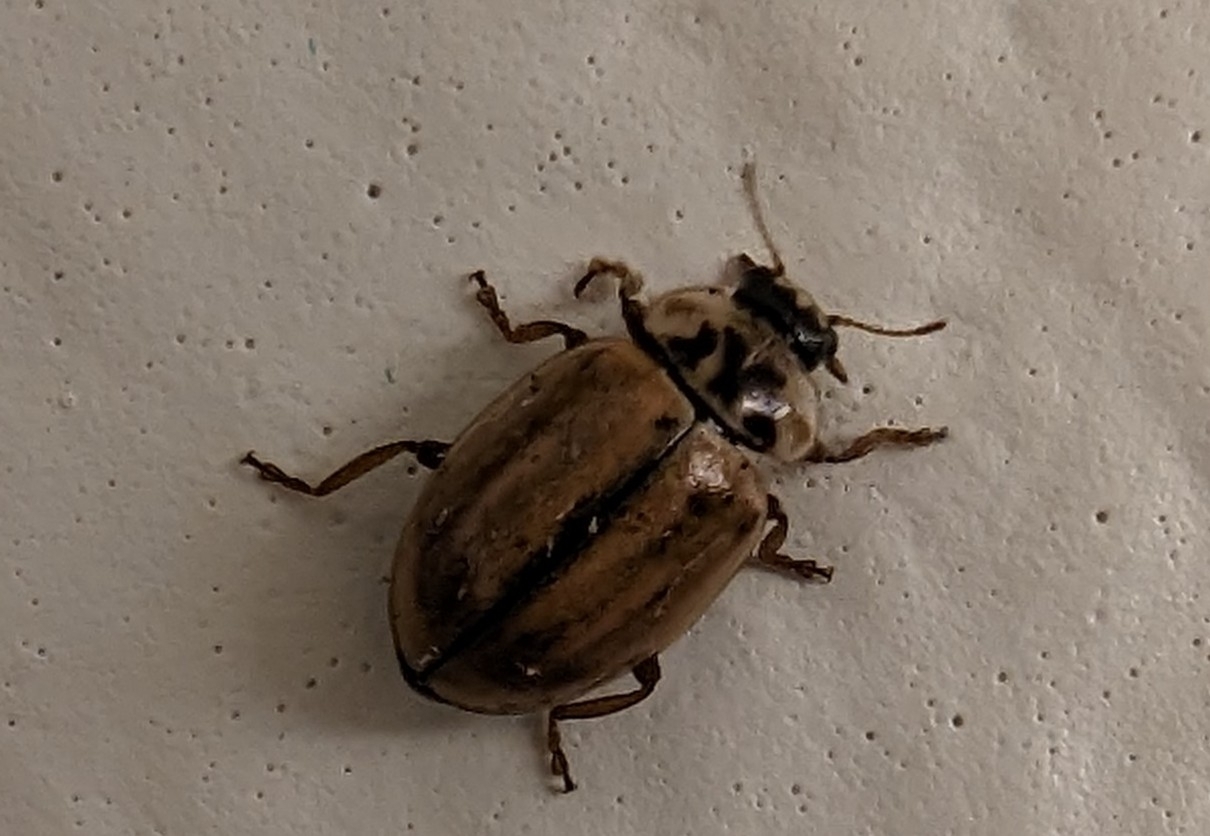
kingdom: Animalia
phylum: Arthropoda
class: Insecta
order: Coleoptera
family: Coccinellidae
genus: Aphidecta
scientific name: Aphidecta obliterata
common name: Larch ladybird
